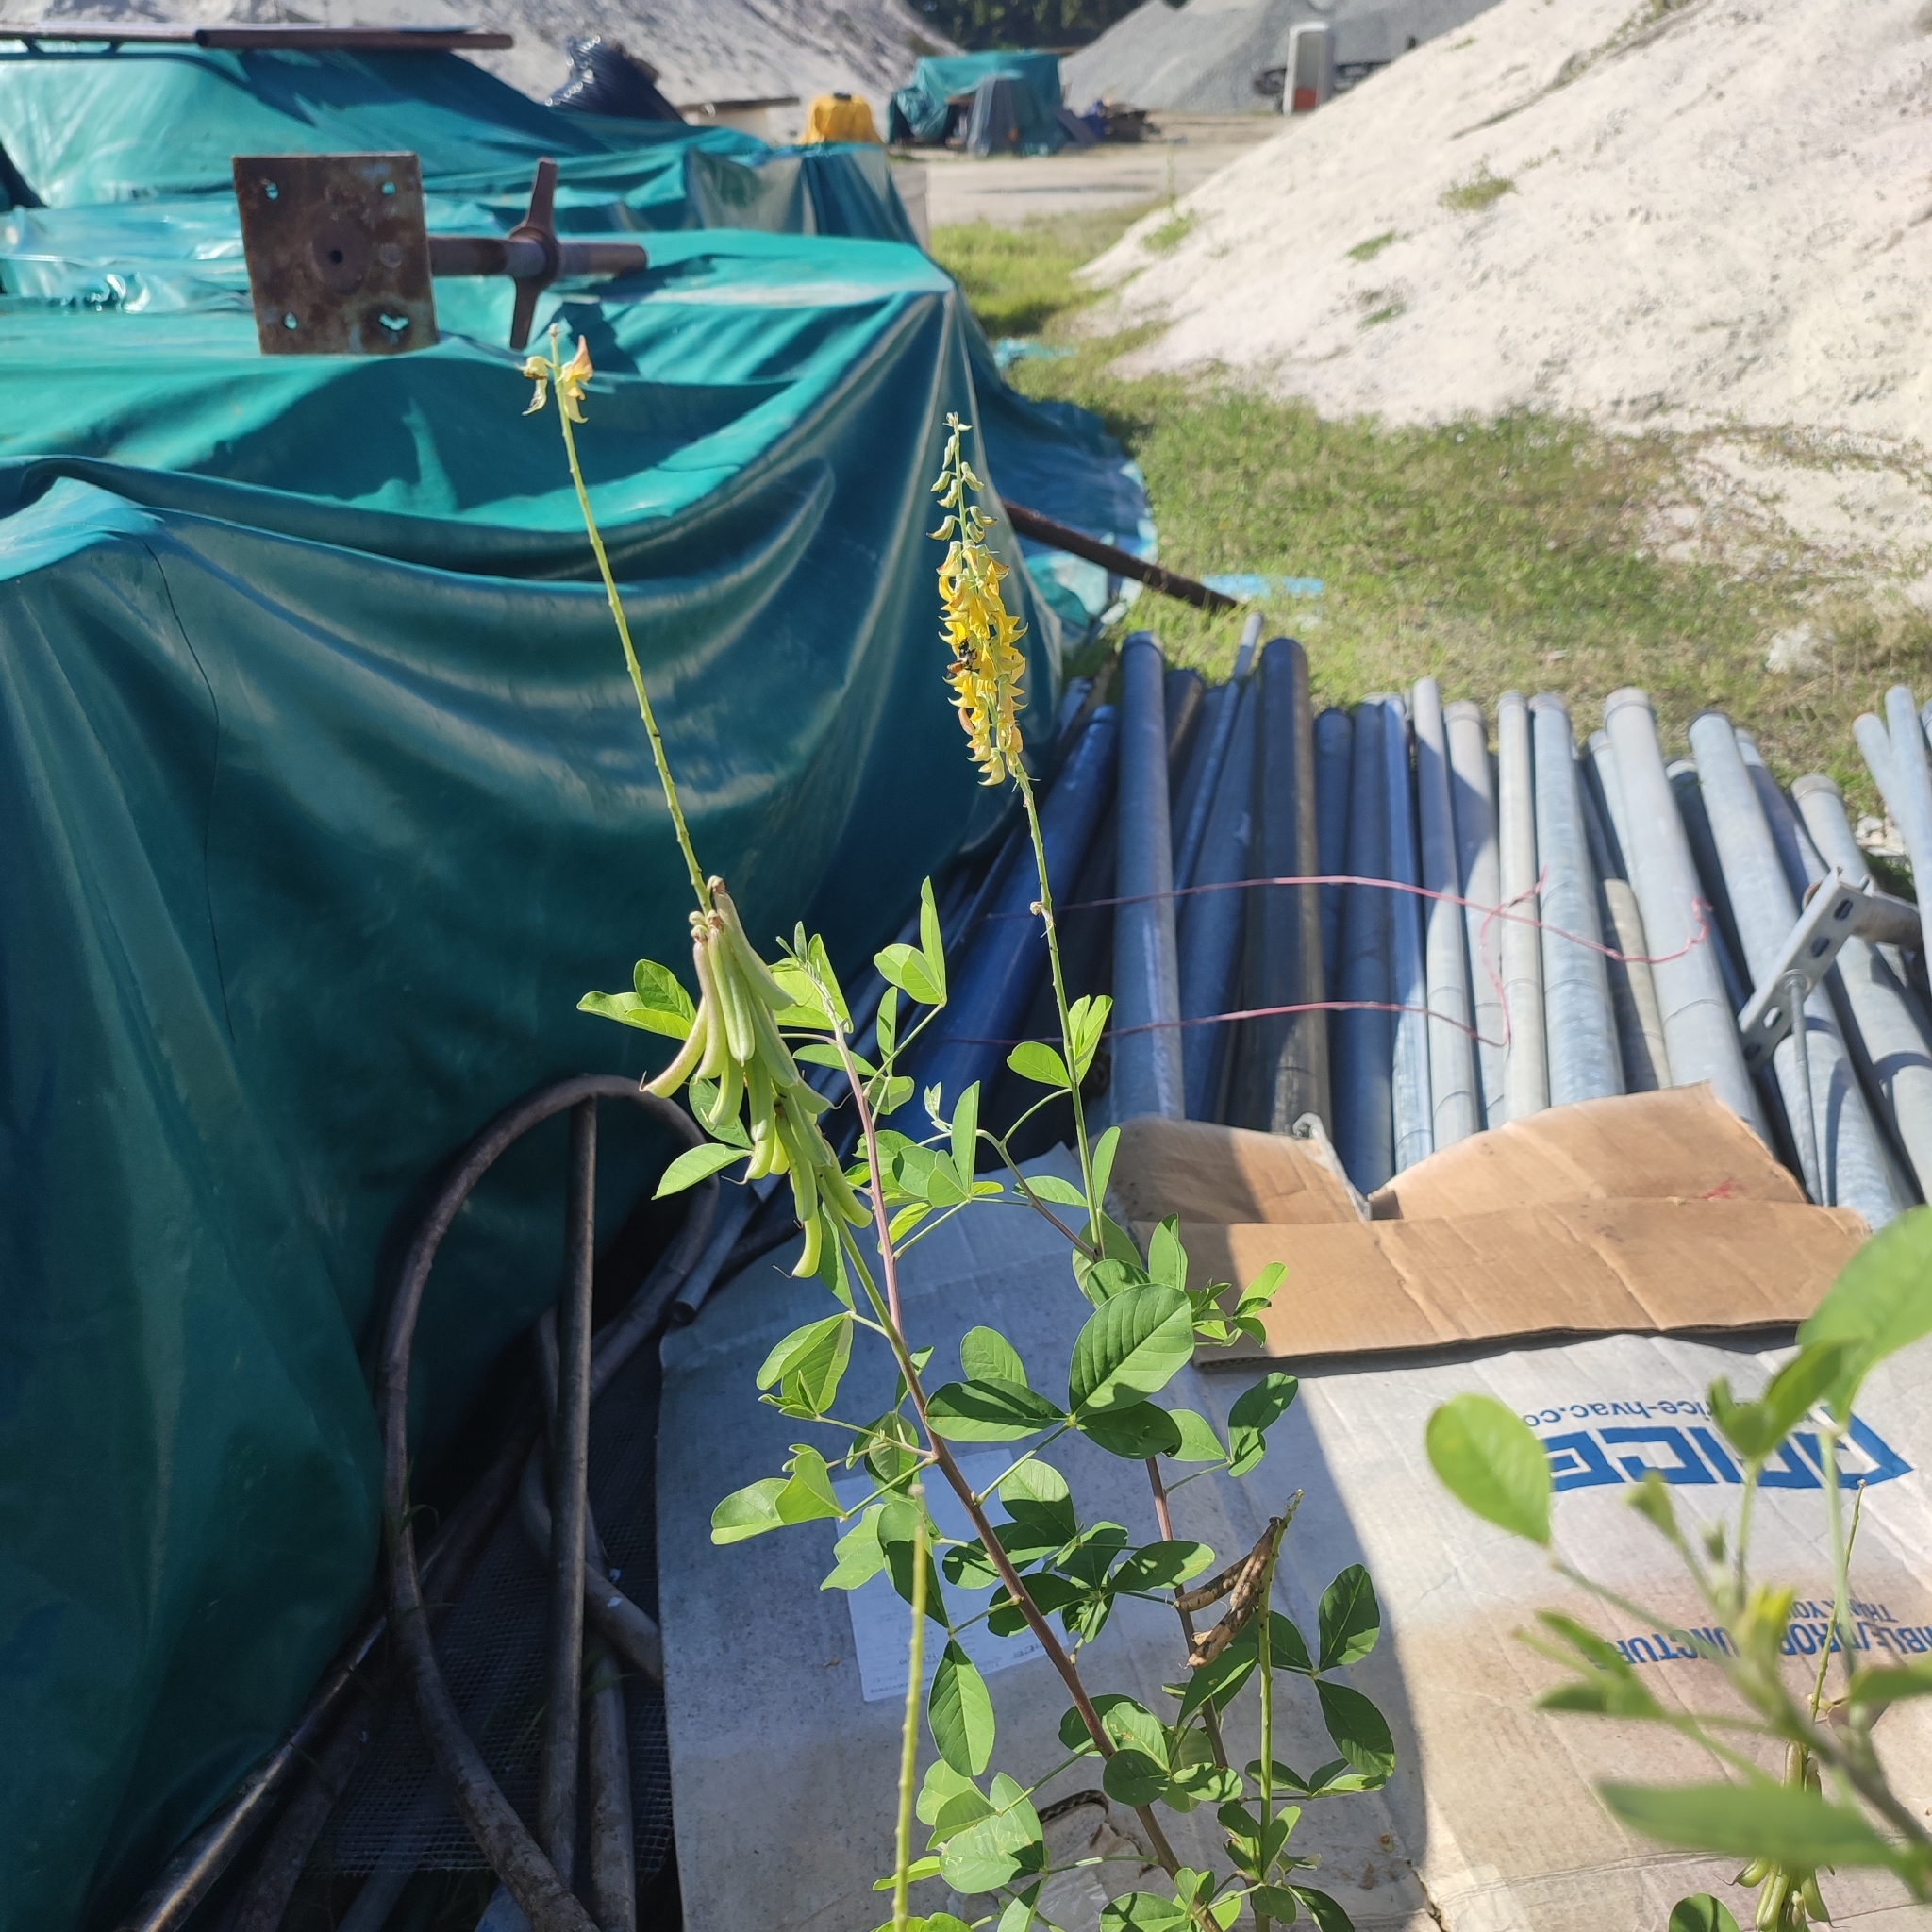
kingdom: Plantae
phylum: Tracheophyta
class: Magnoliopsida
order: Fabales
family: Fabaceae
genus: Crotalaria
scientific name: Crotalaria pallida
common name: Smooth rattlebox
